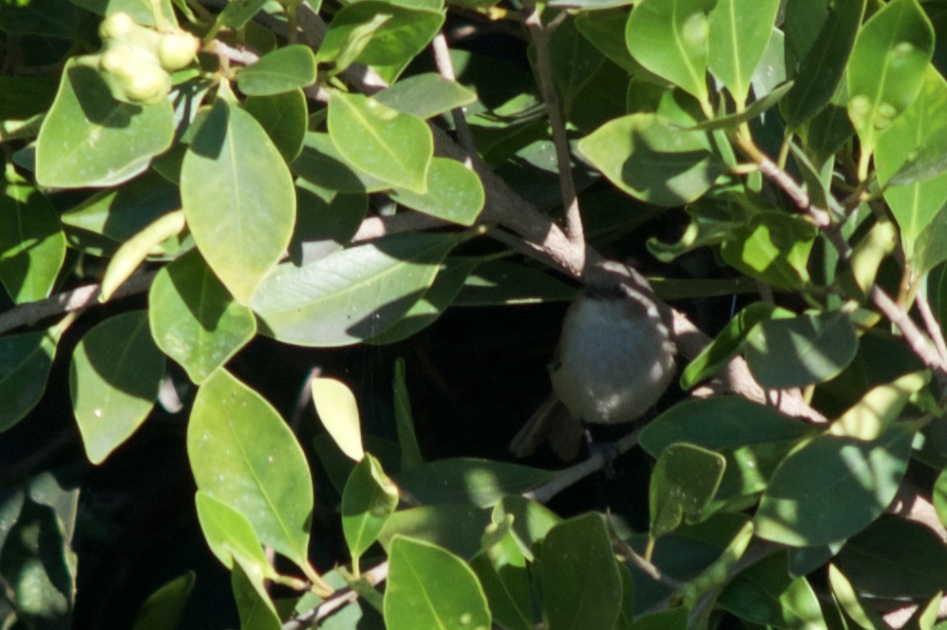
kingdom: Animalia
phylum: Chordata
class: Aves
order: Passeriformes
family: Aegithalidae
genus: Psaltriparus
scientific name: Psaltriparus minimus
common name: American bushtit
